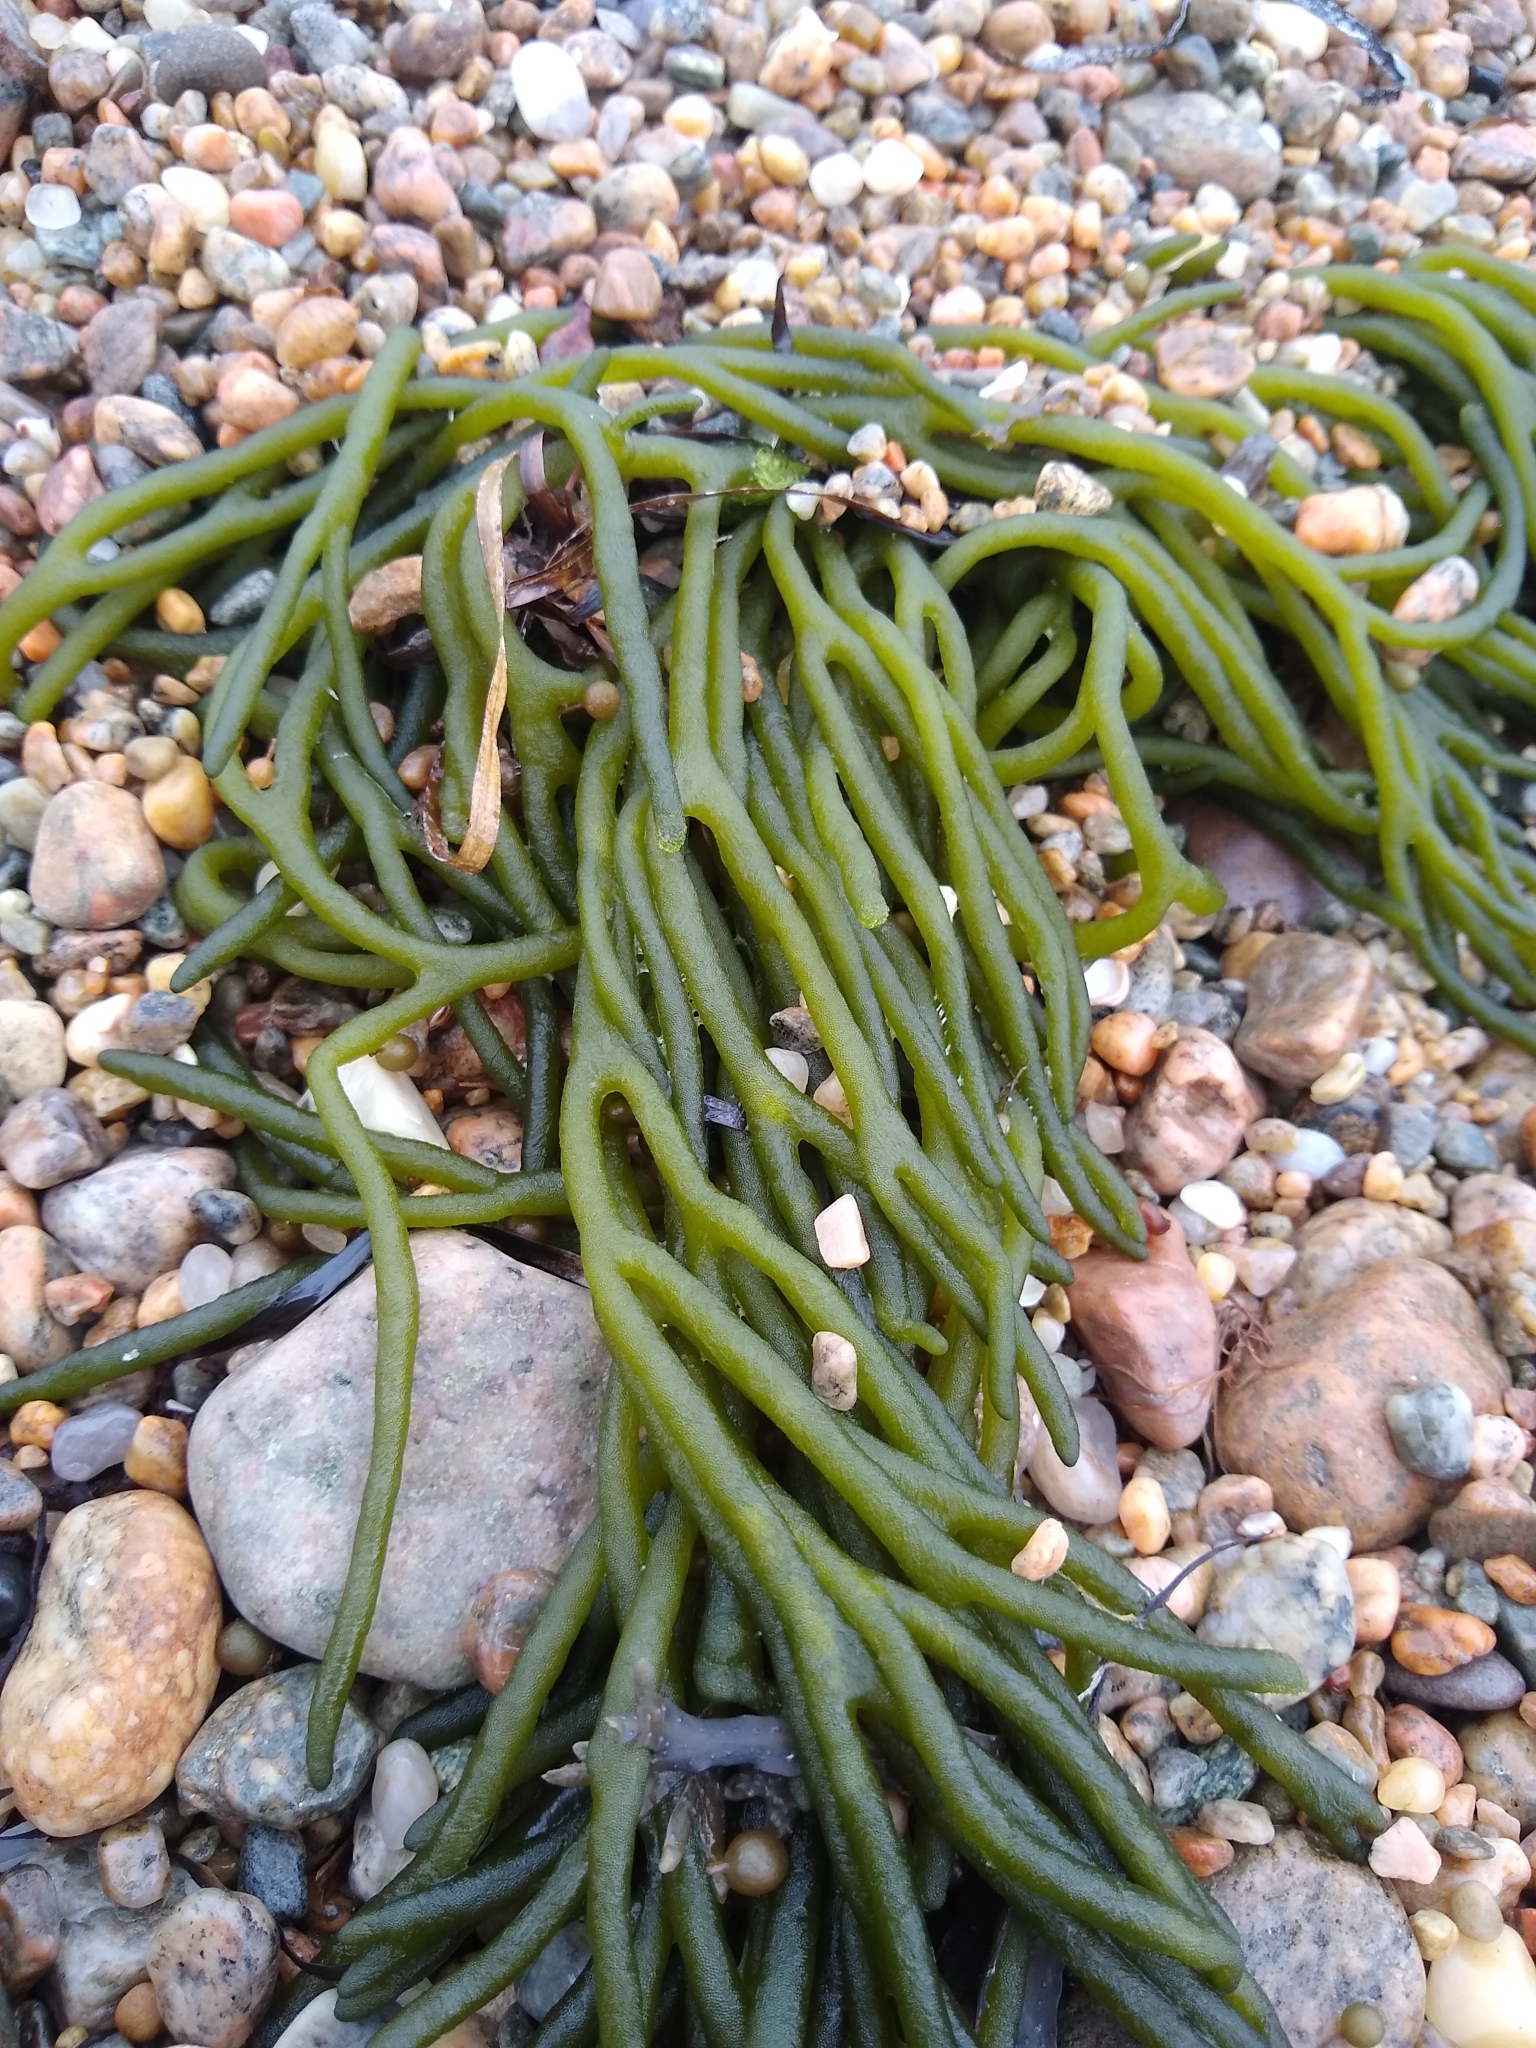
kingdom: Plantae
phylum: Chlorophyta
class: Ulvophyceae
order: Bryopsidales
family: Codiaceae
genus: Codium
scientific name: Codium fragile
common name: Dead man's fingers
